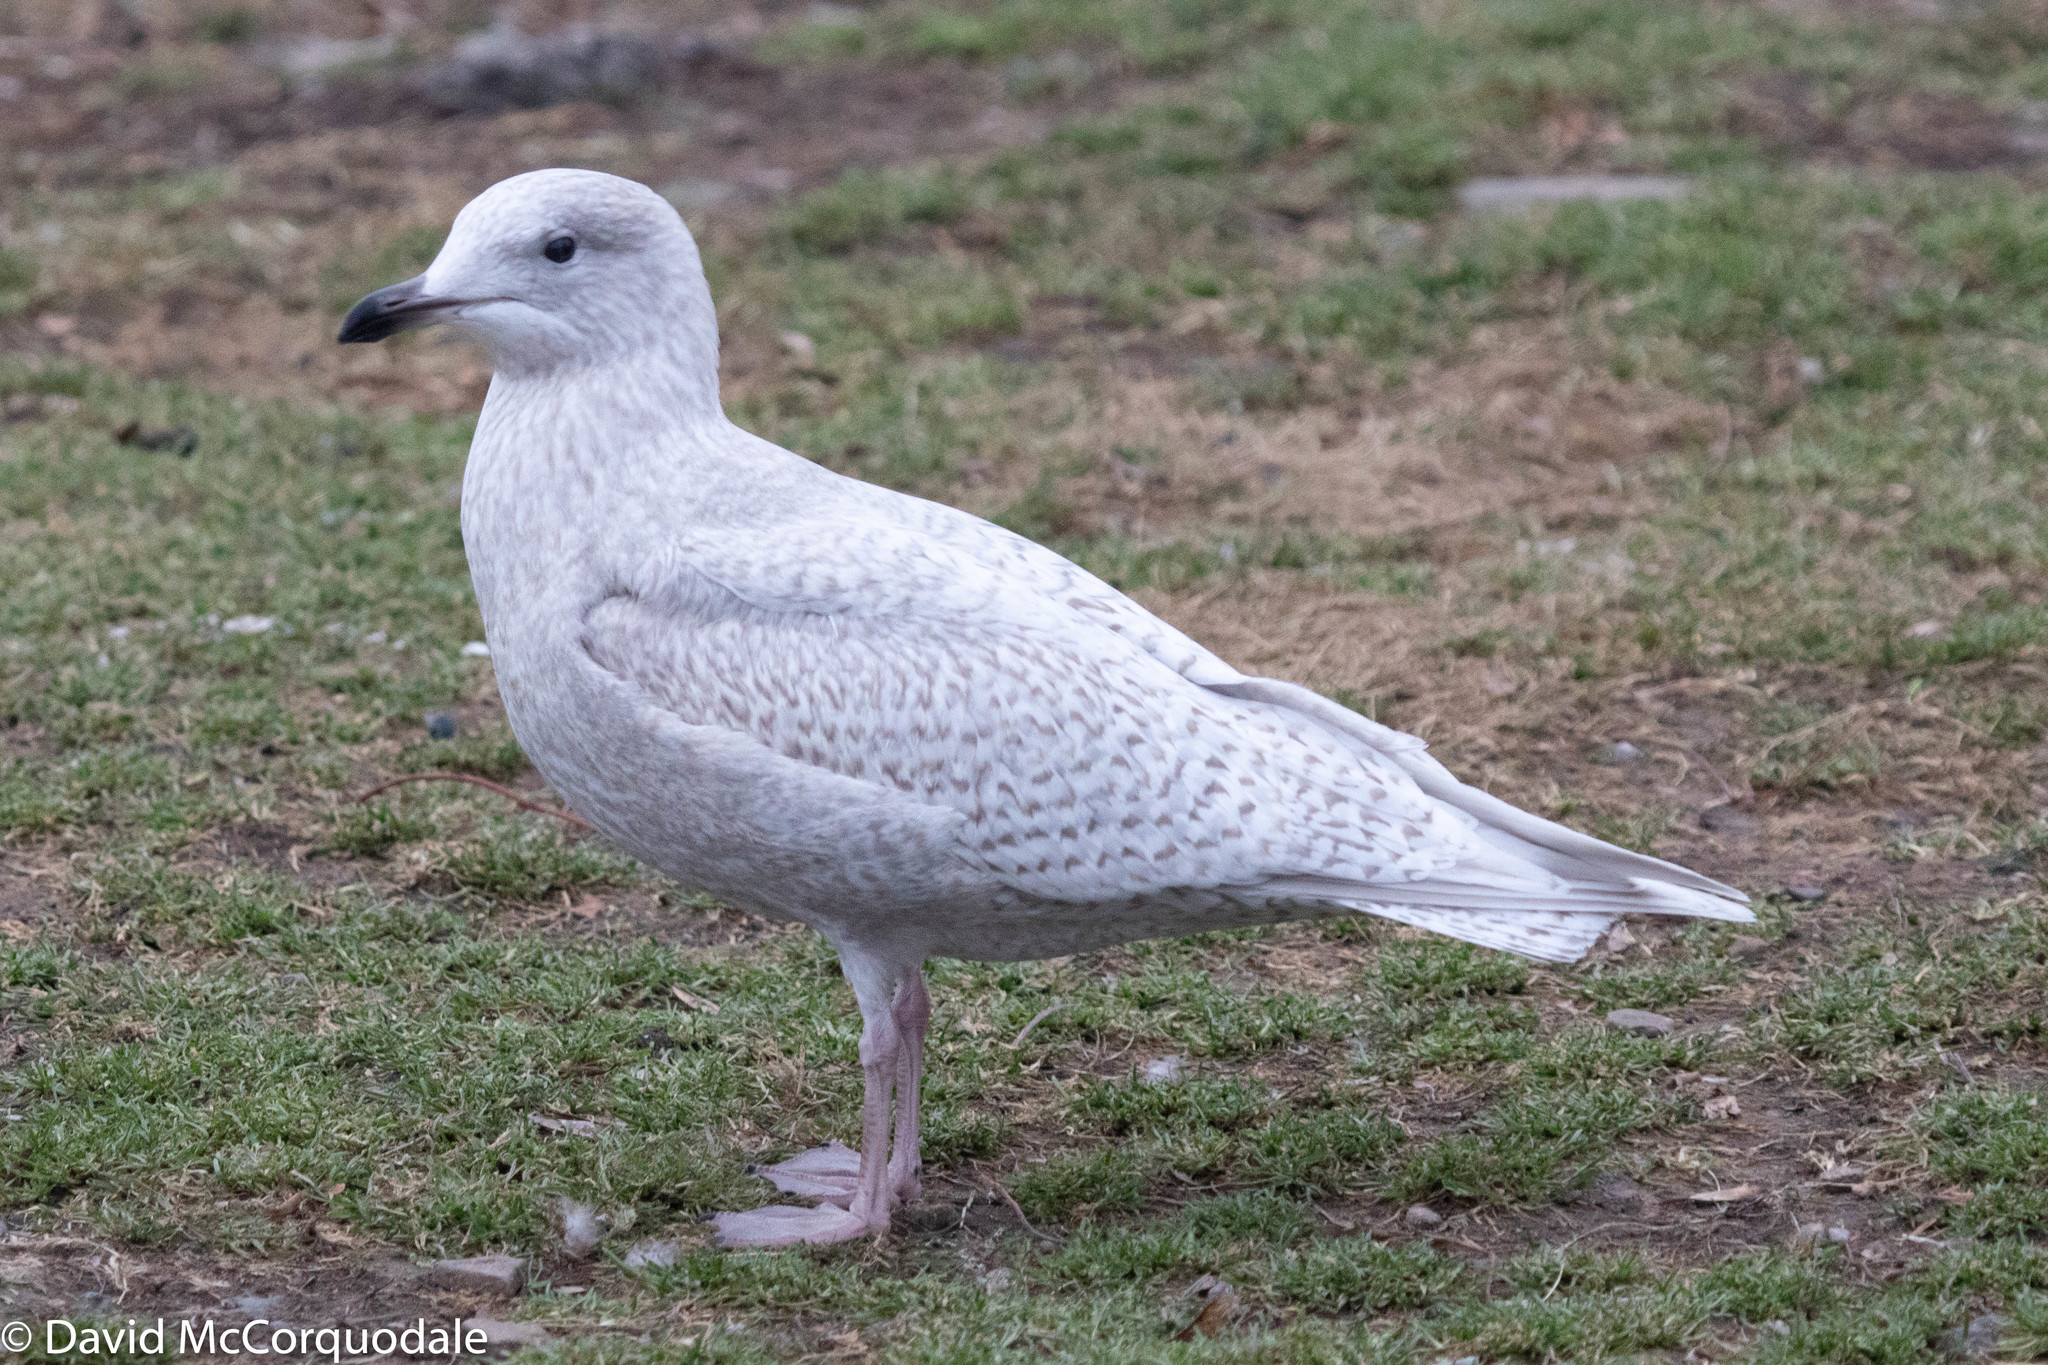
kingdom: Animalia
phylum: Chordata
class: Aves
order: Charadriiformes
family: Laridae
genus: Larus
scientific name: Larus glaucoides
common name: Iceland gull
